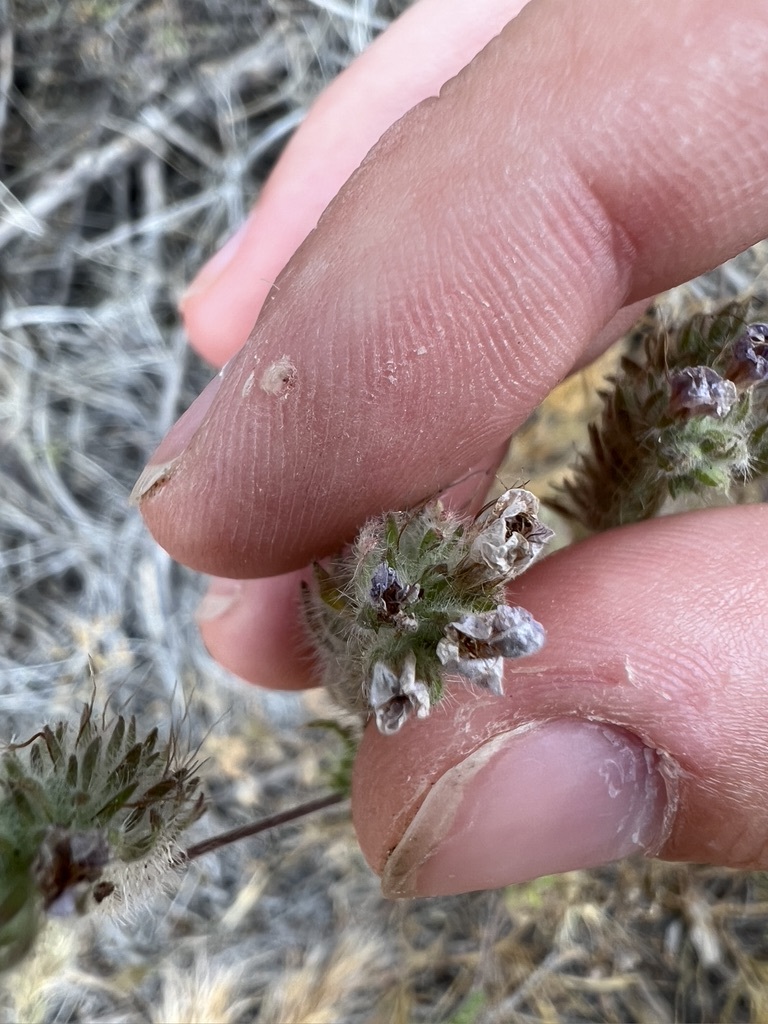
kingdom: Plantae
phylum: Tracheophyta
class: Magnoliopsida
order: Boraginales
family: Hydrophyllaceae
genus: Phacelia
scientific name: Phacelia distans
